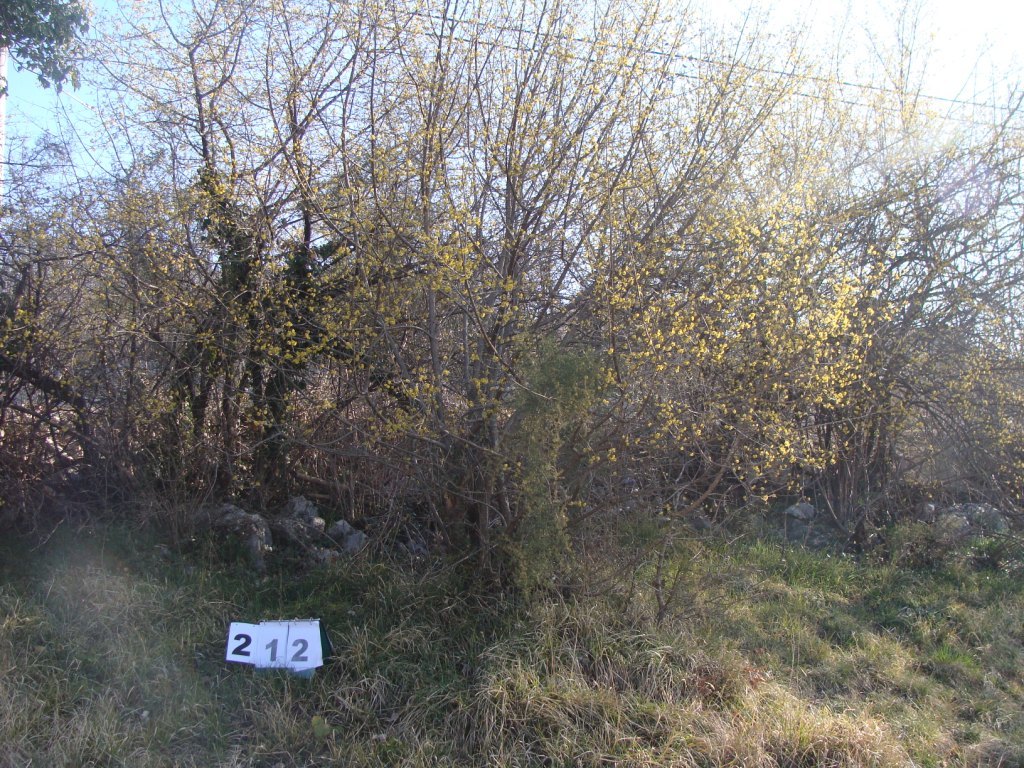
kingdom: Plantae
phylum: Tracheophyta
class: Magnoliopsida
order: Cornales
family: Cornaceae
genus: Cornus
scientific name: Cornus mas
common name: Cornelian-cherry
